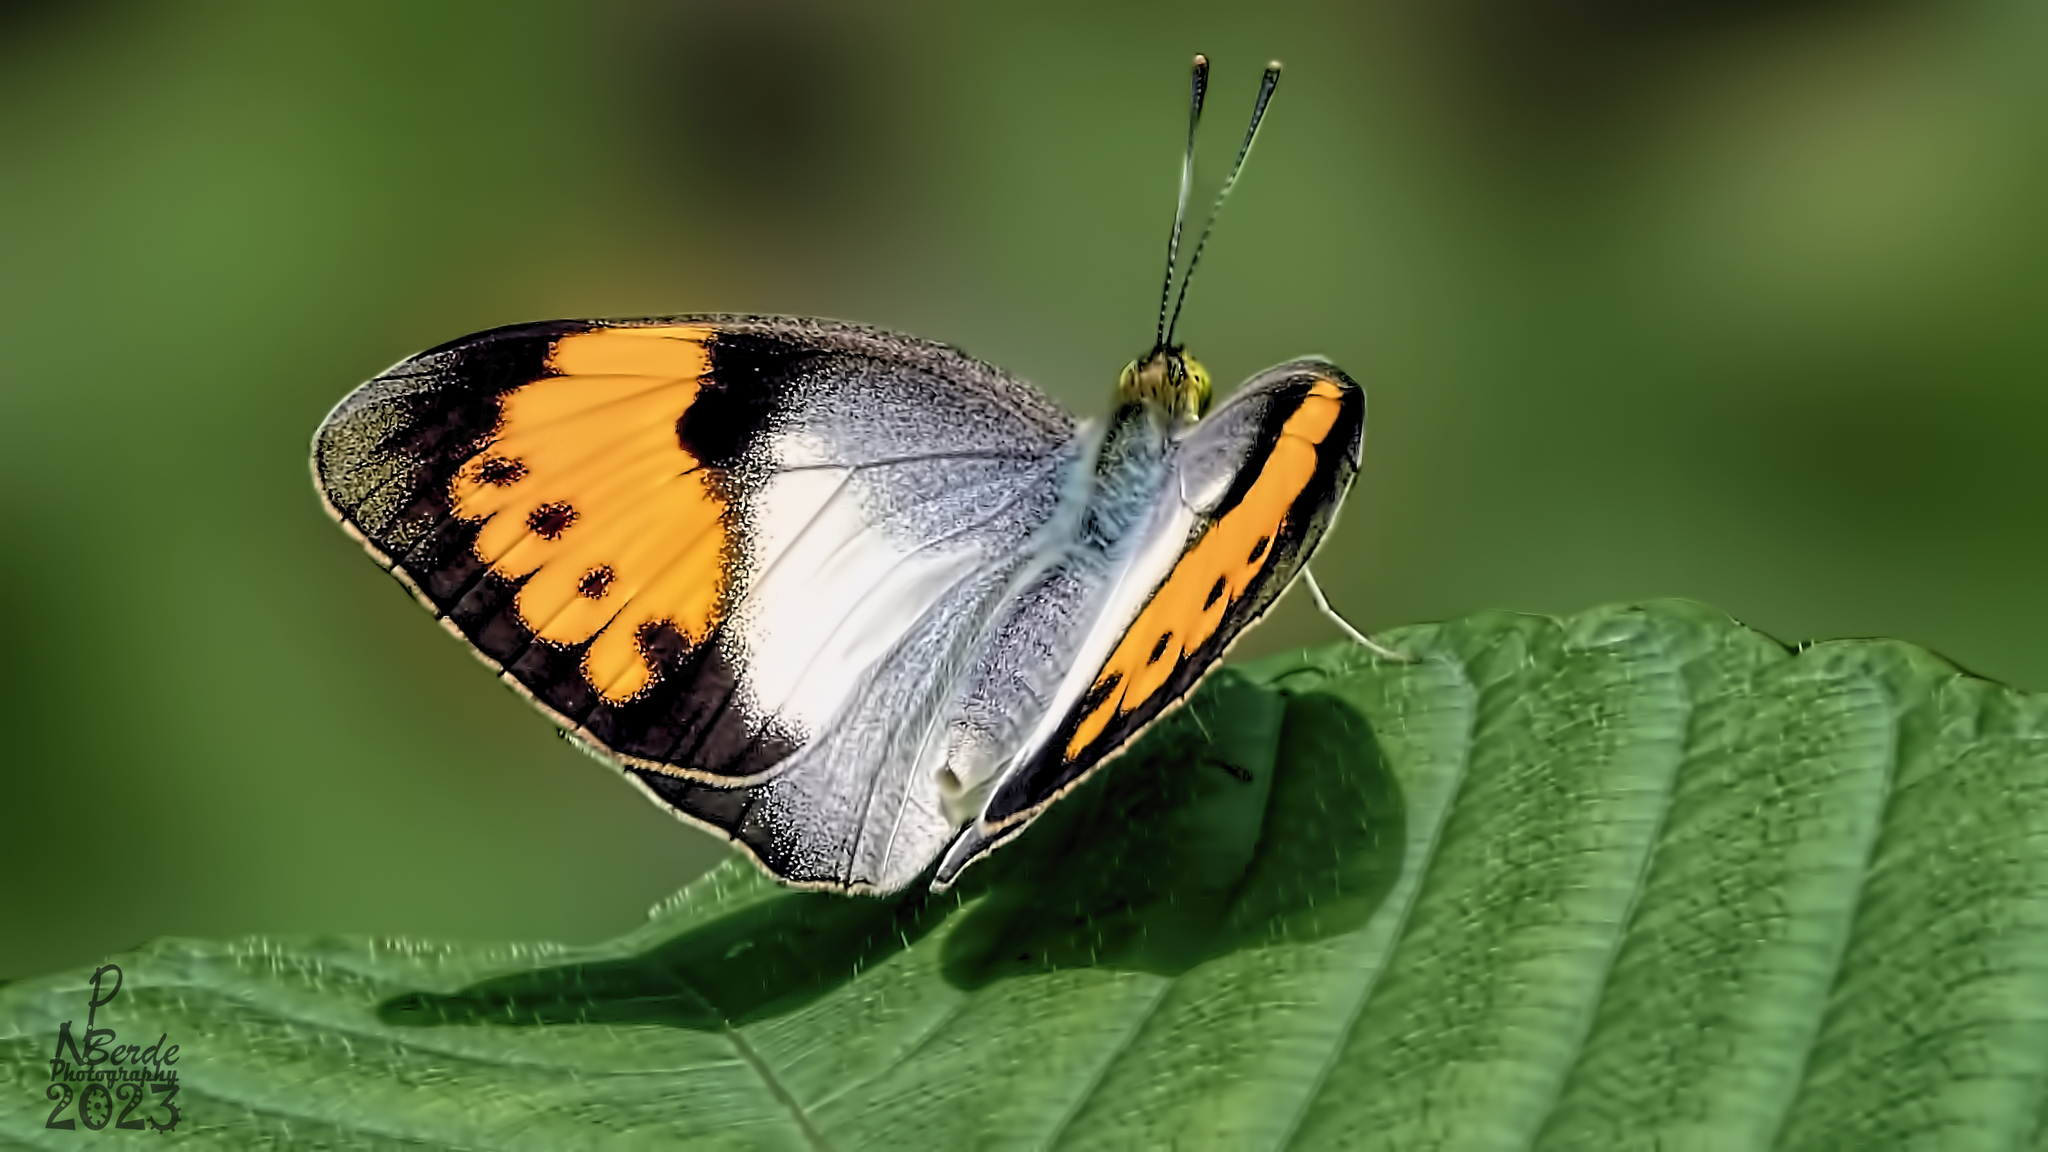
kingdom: Animalia
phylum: Arthropoda
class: Insecta
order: Lepidoptera
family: Pieridae
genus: Ixias
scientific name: Ixias marianne
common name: White orange tip
